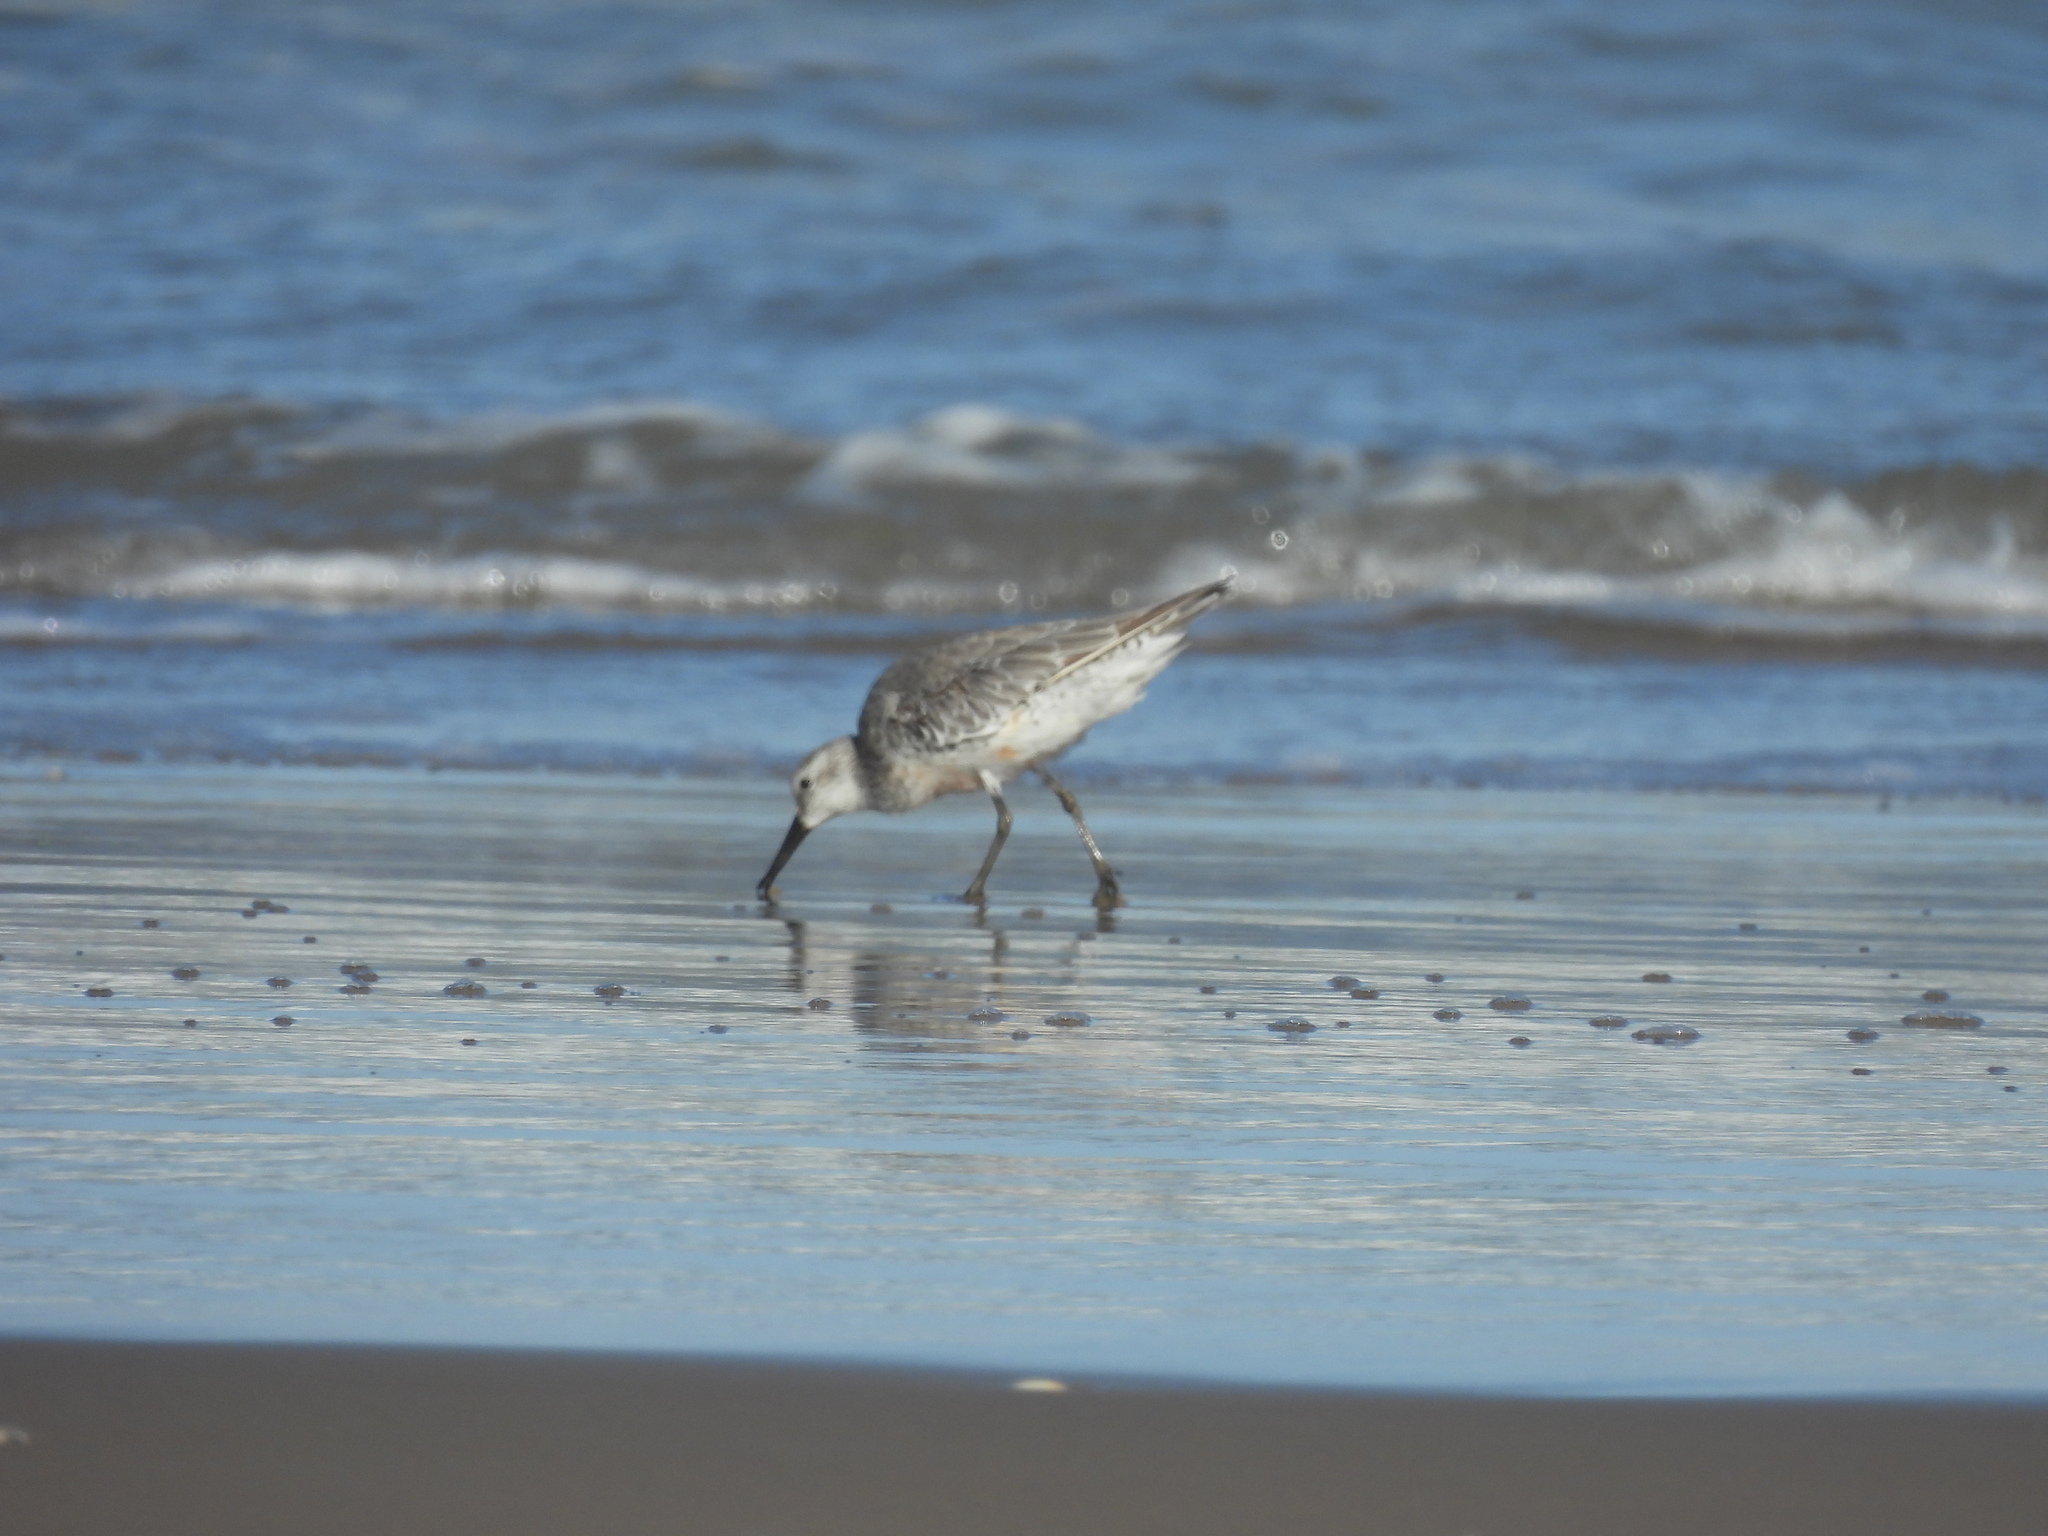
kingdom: Animalia
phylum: Chordata
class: Aves
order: Charadriiformes
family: Scolopacidae
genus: Calidris
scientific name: Calidris canutus
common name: Red knot
